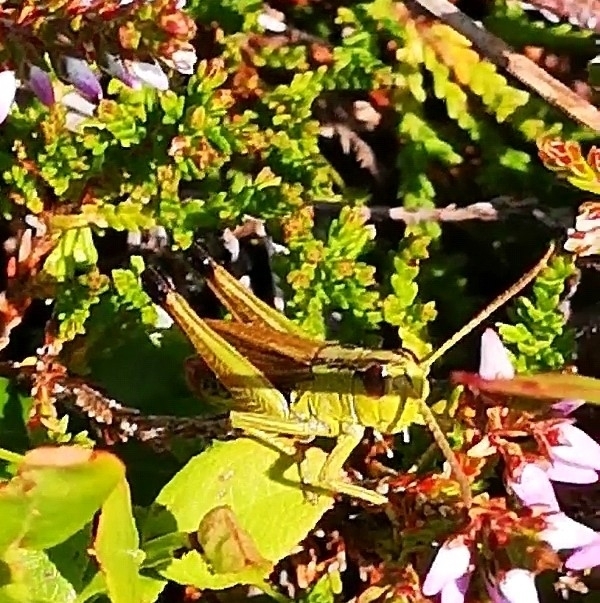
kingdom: Animalia
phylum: Arthropoda
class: Insecta
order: Orthoptera
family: Acrididae
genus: Pseudochorthippus
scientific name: Pseudochorthippus parallelus
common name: Meadow grasshopper
